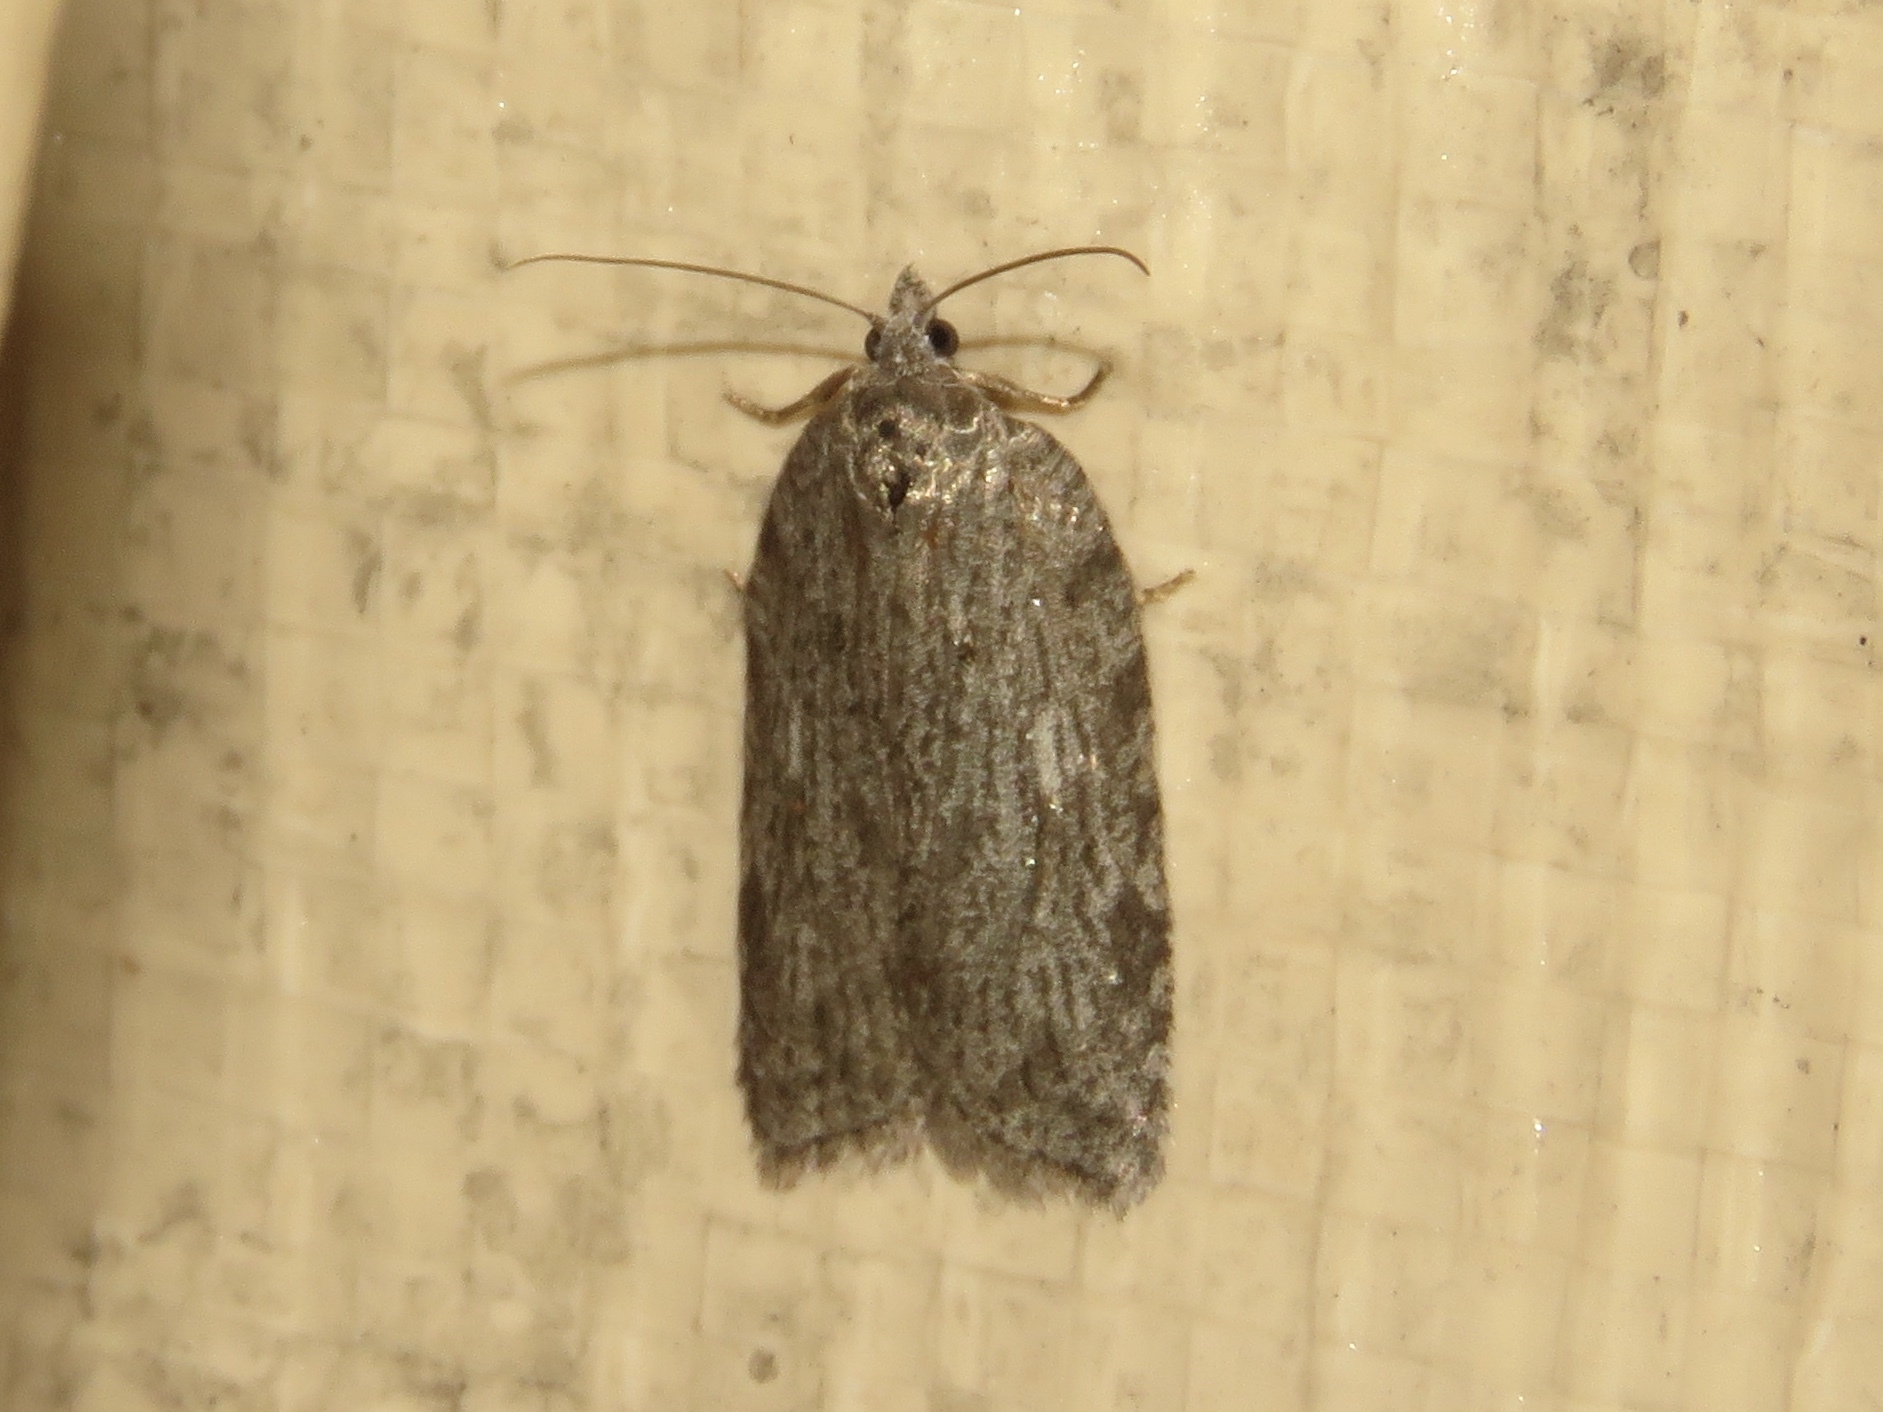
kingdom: Animalia
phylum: Arthropoda
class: Insecta
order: Lepidoptera
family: Tortricidae
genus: Acleris
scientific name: Acleris maximana
